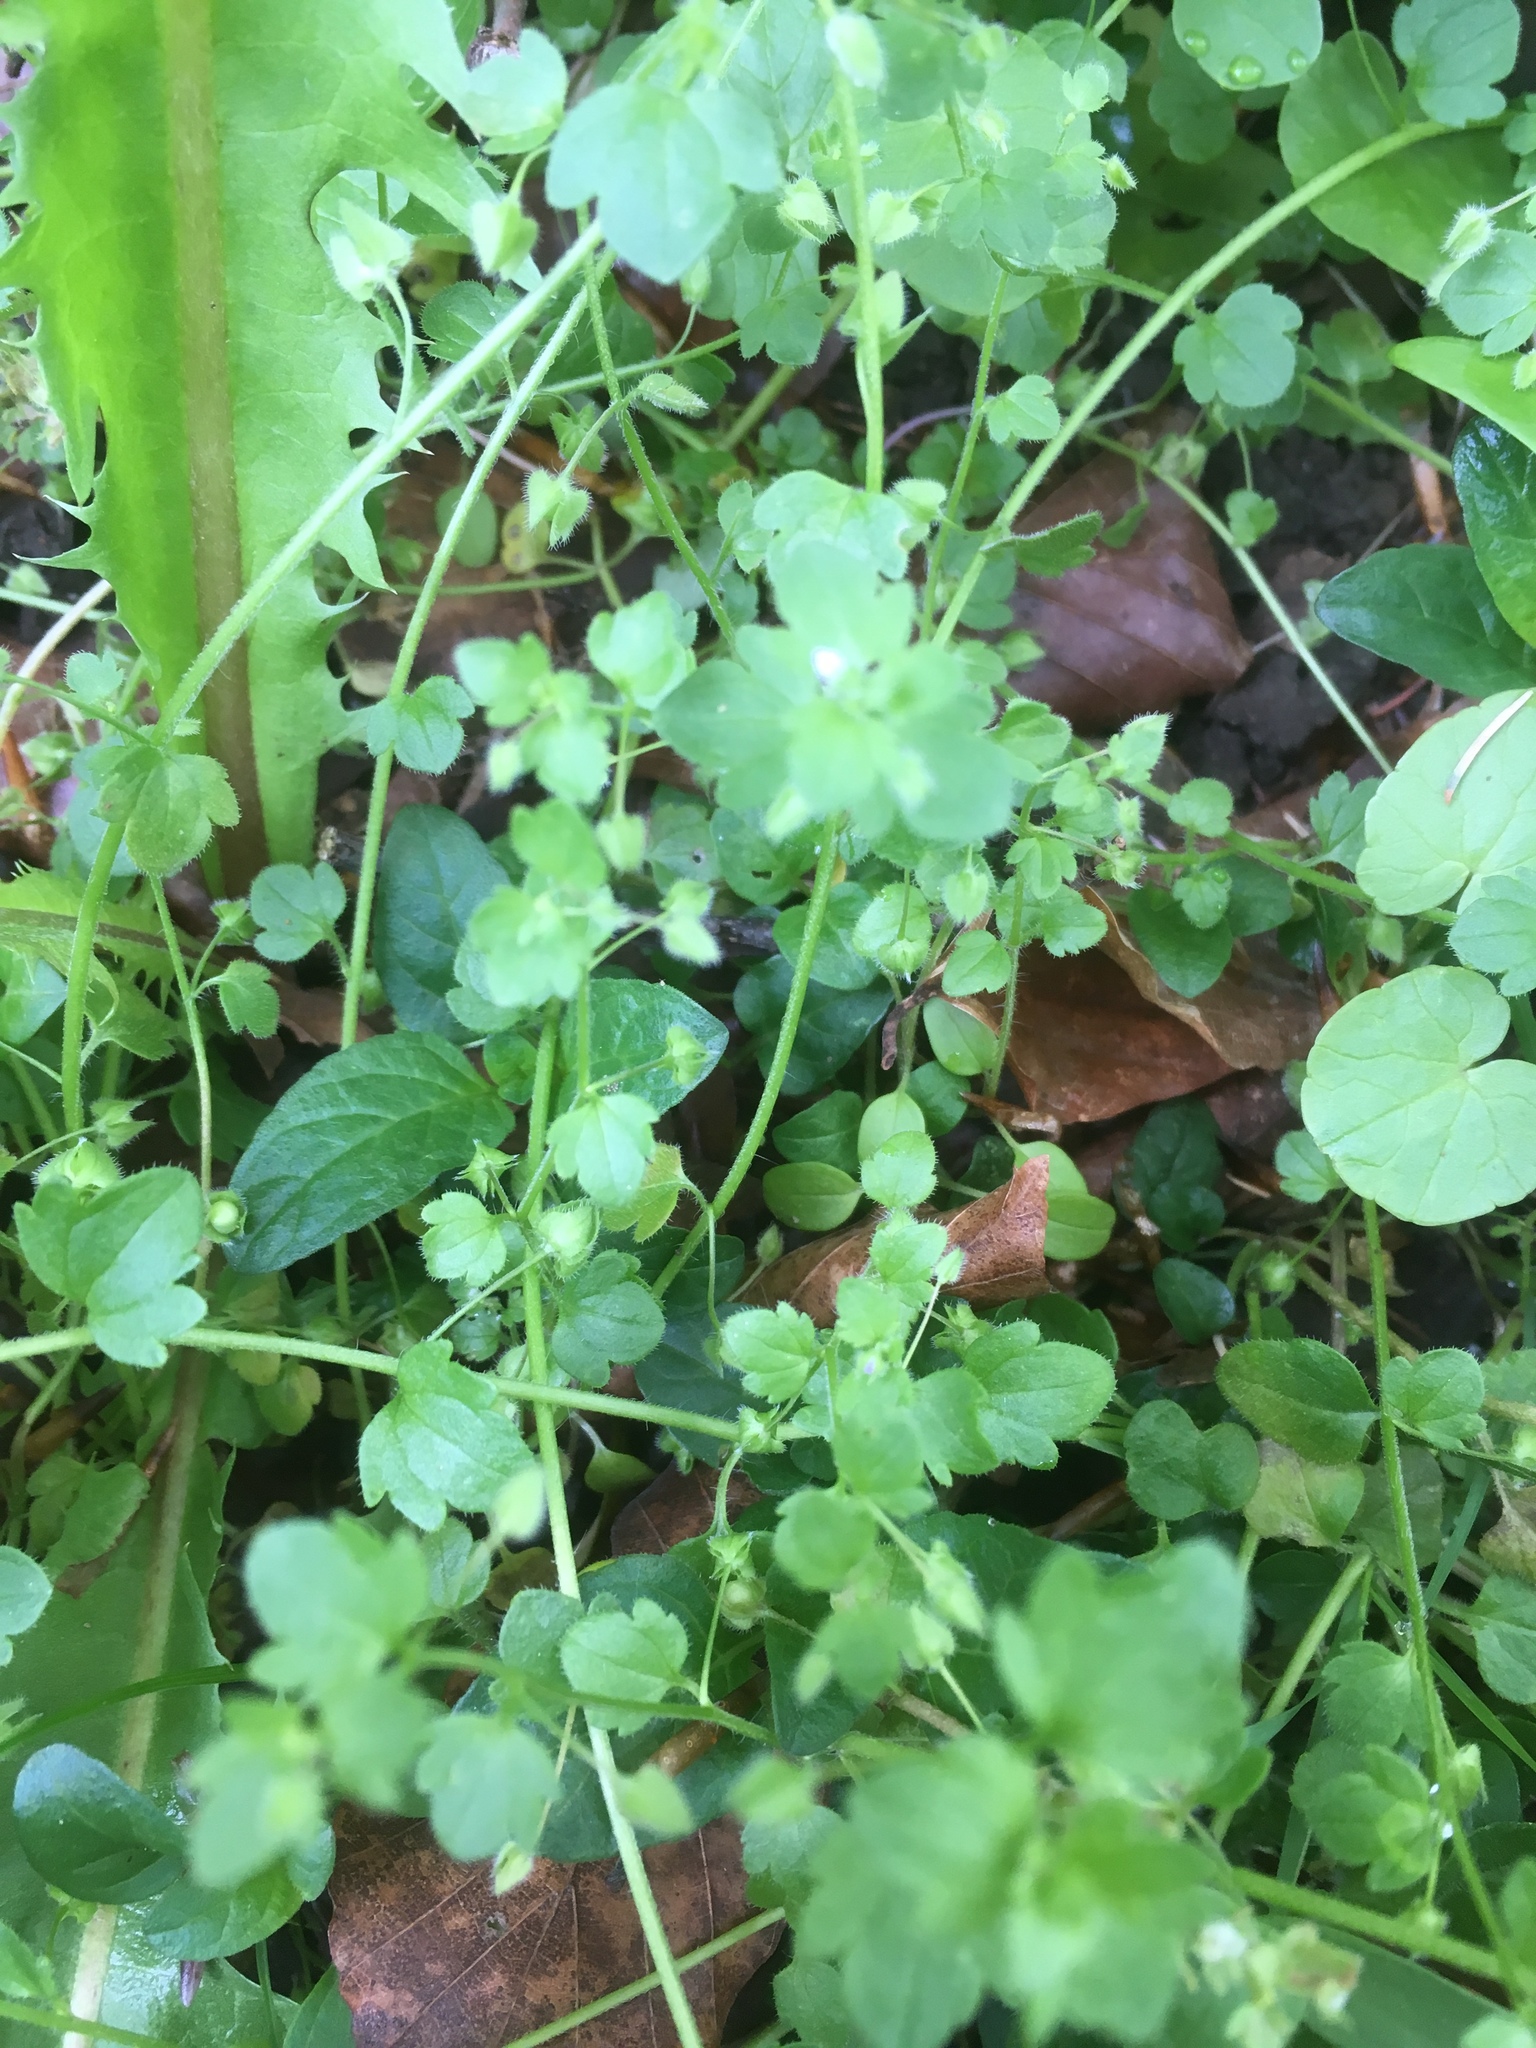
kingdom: Plantae
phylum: Tracheophyta
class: Magnoliopsida
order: Lamiales
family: Plantaginaceae
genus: Veronica
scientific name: Veronica hederifolia
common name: Ivy-leaved speedwell
